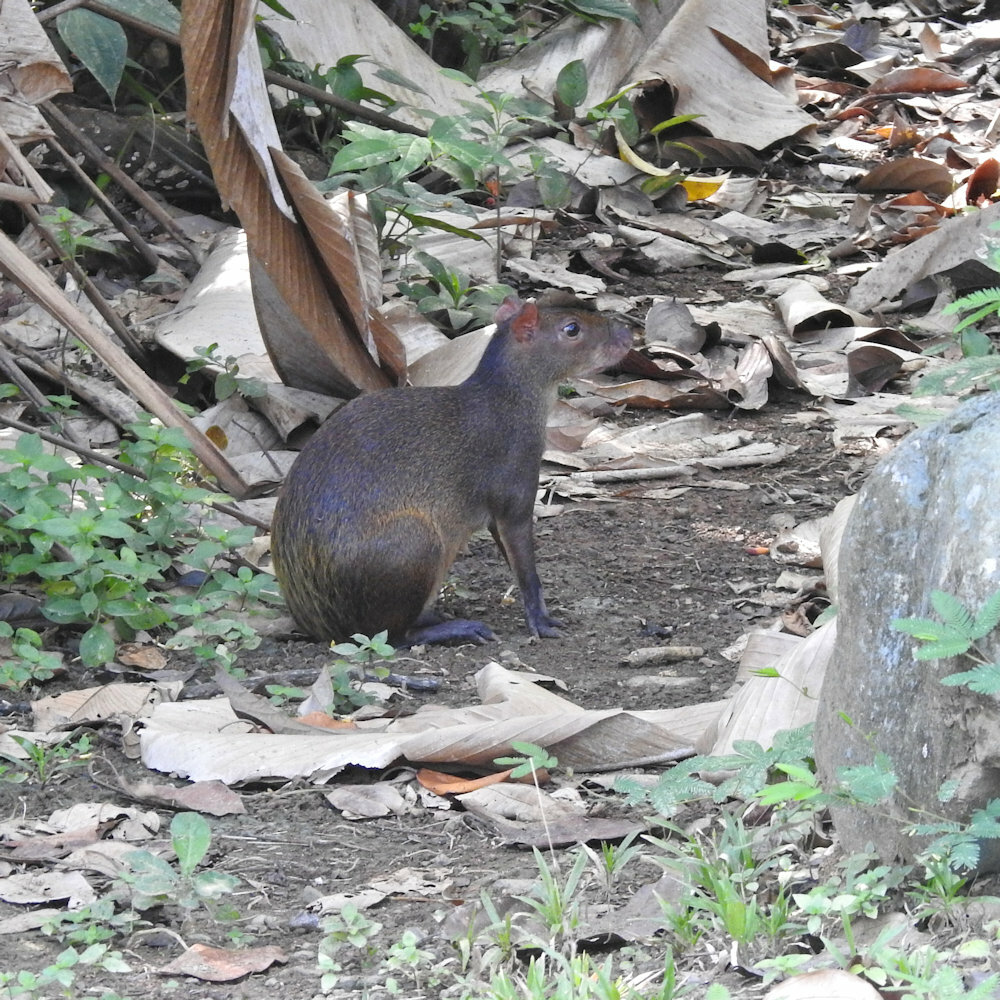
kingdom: Animalia
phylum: Chordata
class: Mammalia
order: Rodentia
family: Dasyproctidae
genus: Dasyprocta
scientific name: Dasyprocta punctata
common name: Central american agouti
